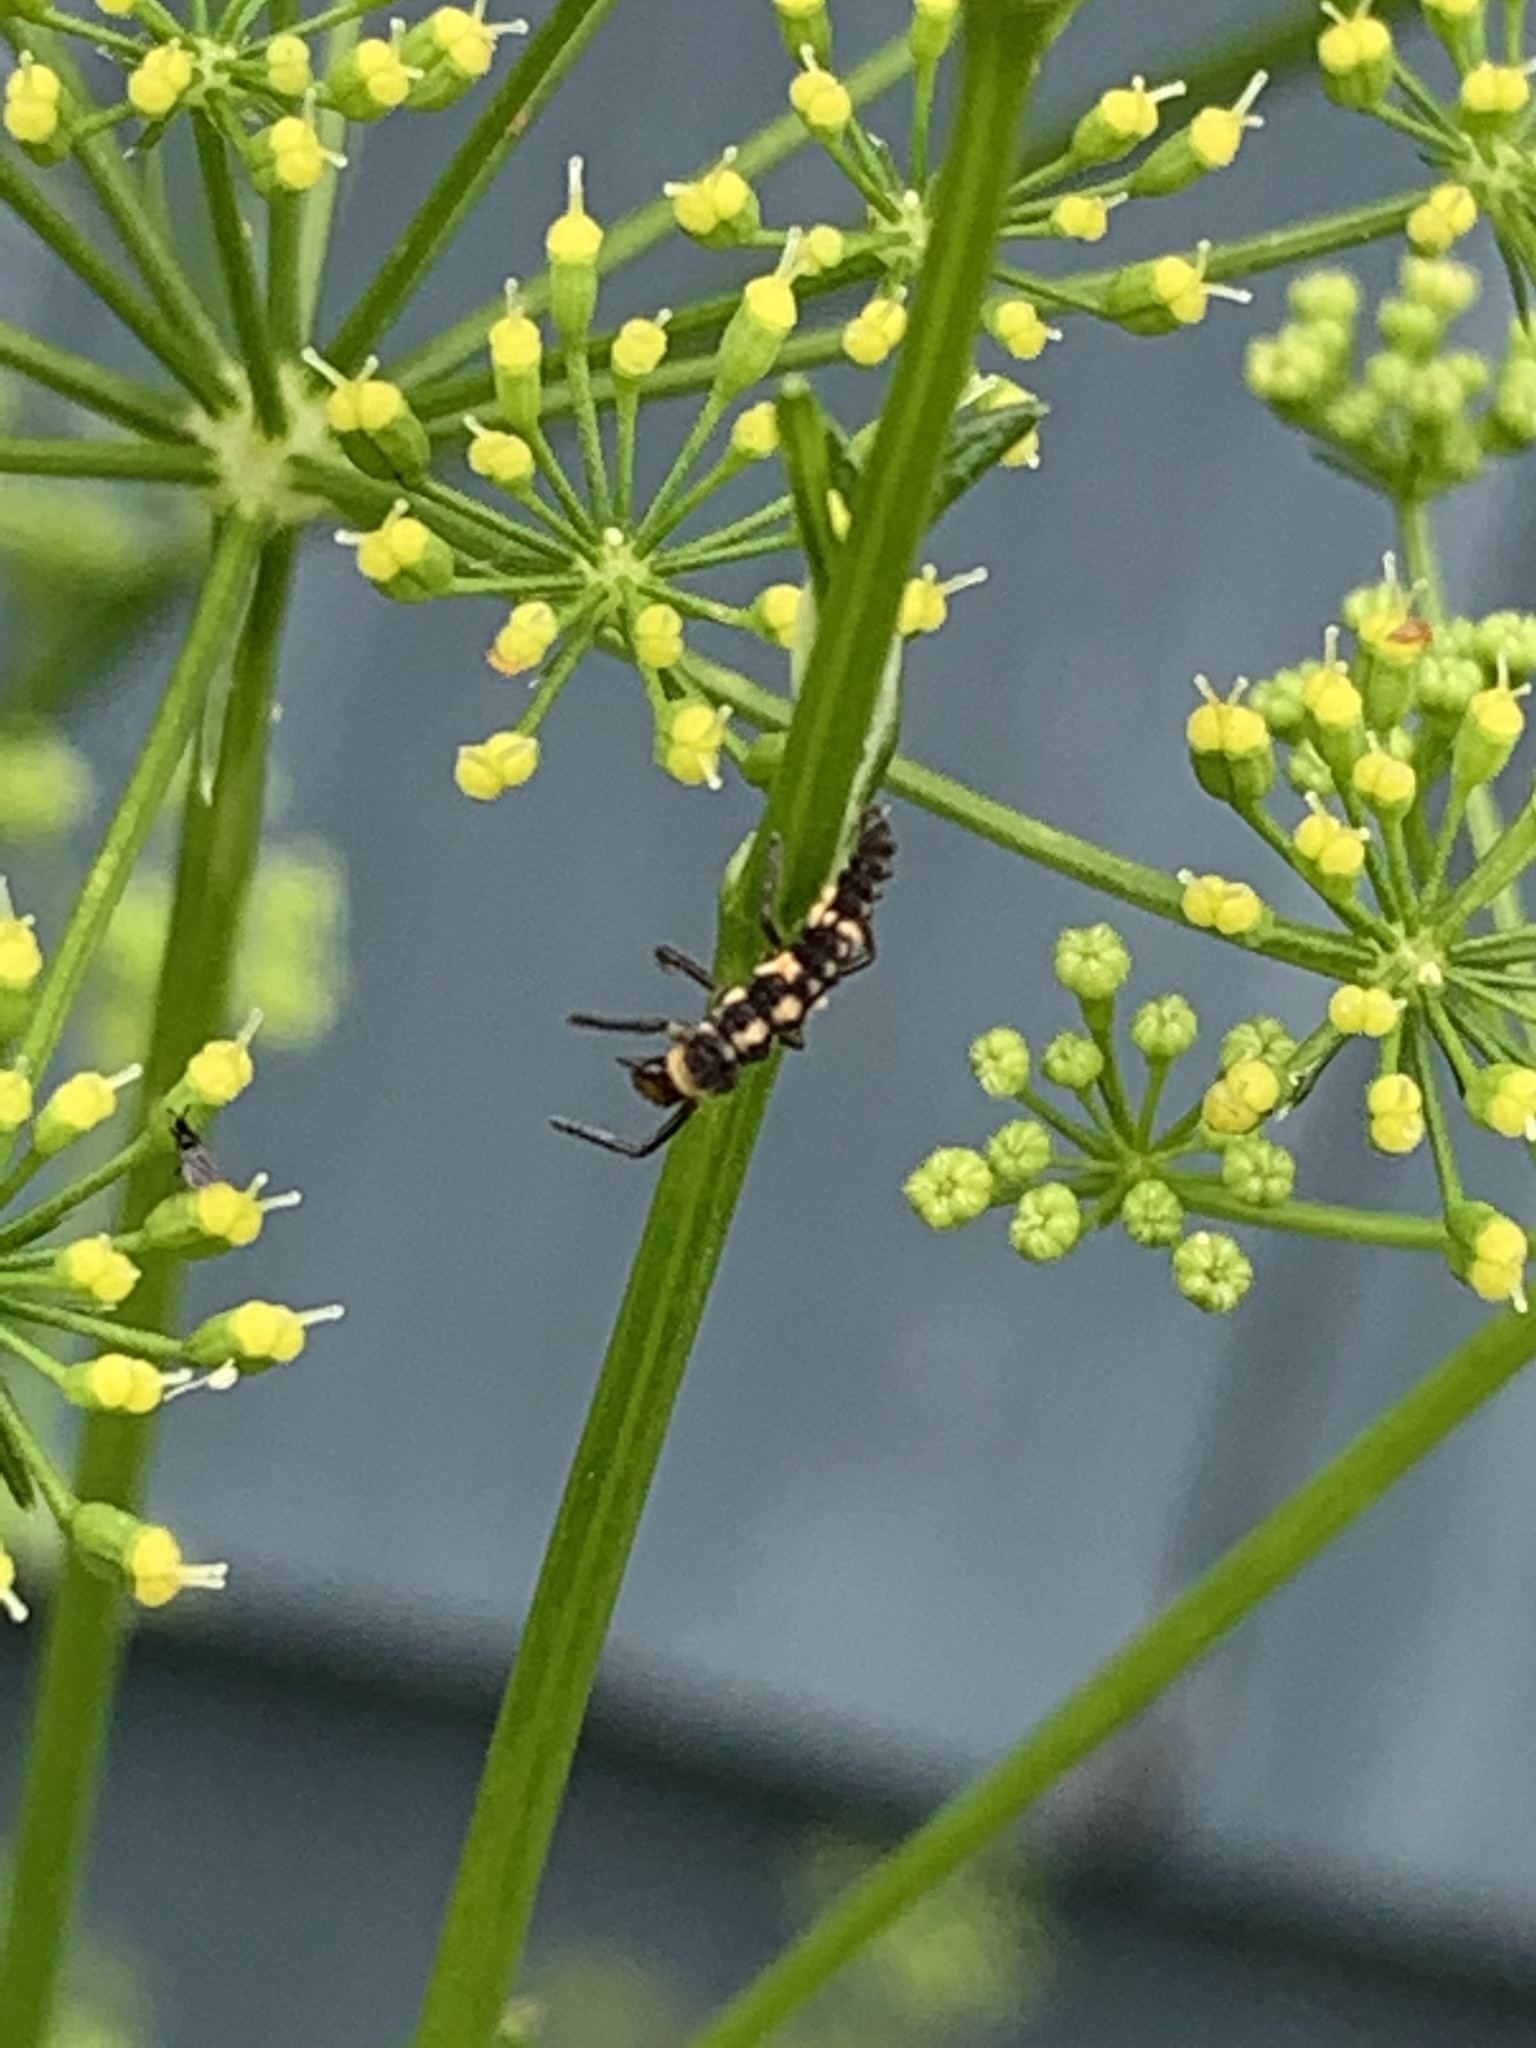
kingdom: Animalia
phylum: Arthropoda
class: Insecta
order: Coleoptera
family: Coccinellidae
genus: Propylaea
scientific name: Propylaea quatuordecimpunctata
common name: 14-spotted ladybird beetle
